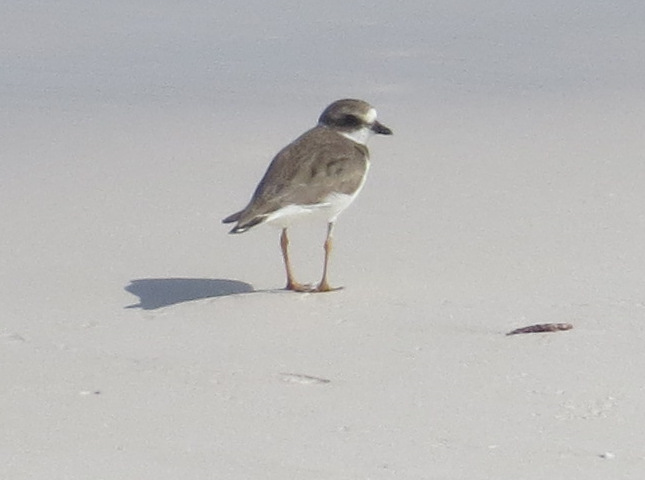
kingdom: Animalia
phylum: Chordata
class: Aves
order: Charadriiformes
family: Charadriidae
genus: Charadrius
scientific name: Charadrius semipalmatus
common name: Semipalmated plover
